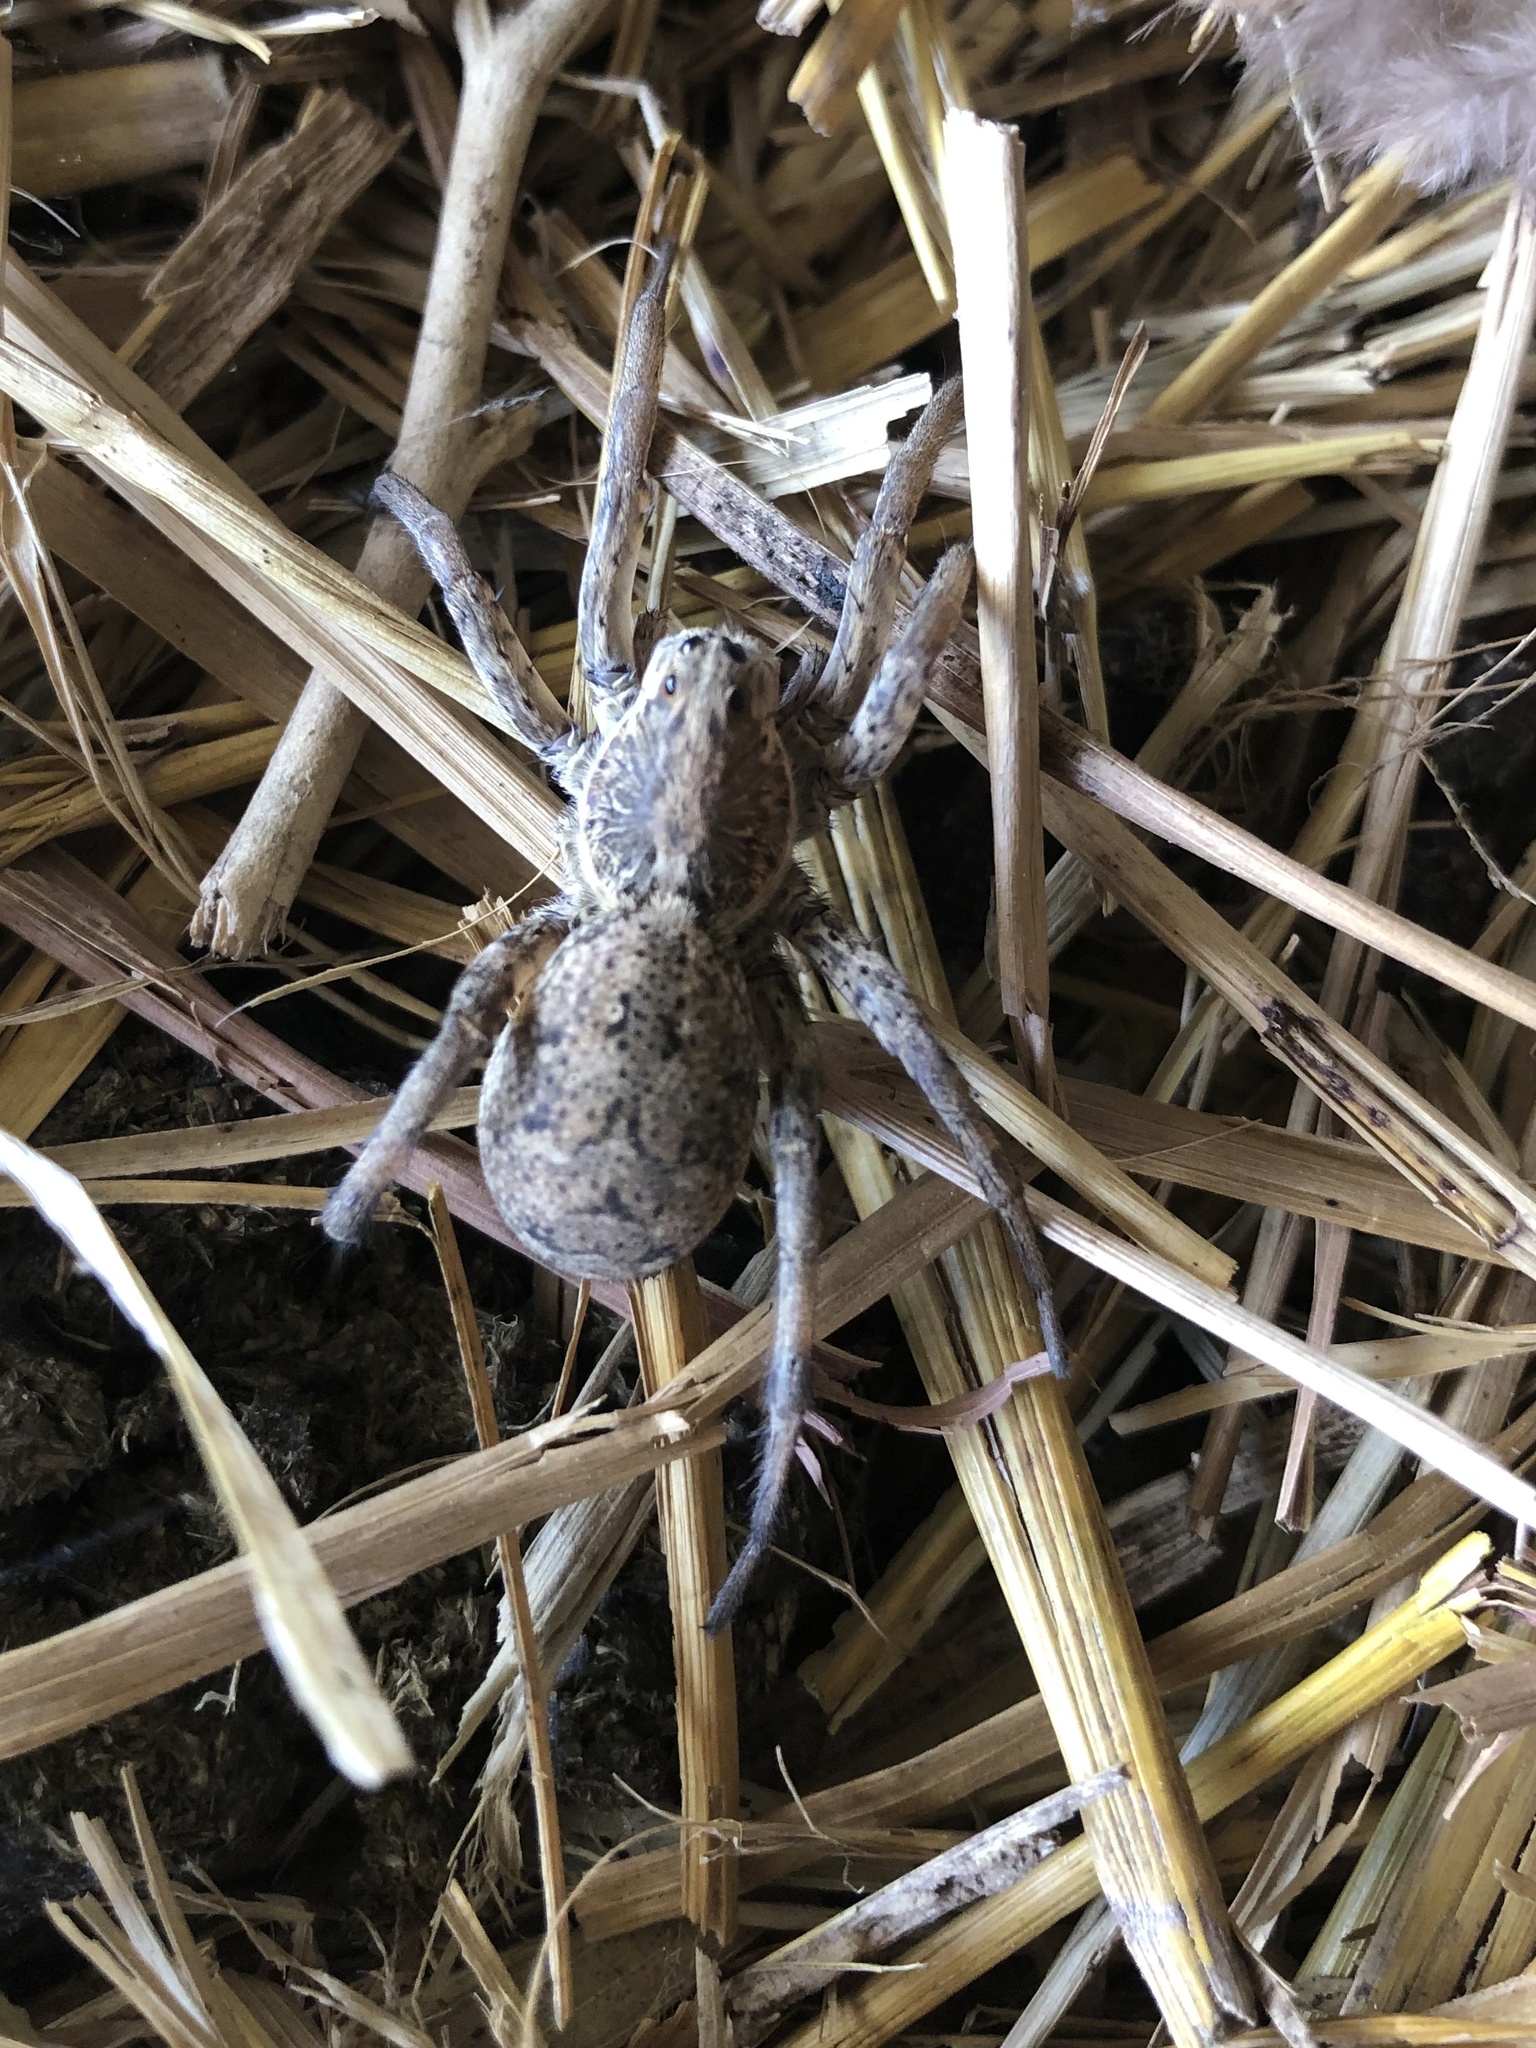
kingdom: Animalia
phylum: Arthropoda
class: Arachnida
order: Araneae
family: Lycosidae
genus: Hogna
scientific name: Hogna antelucana
